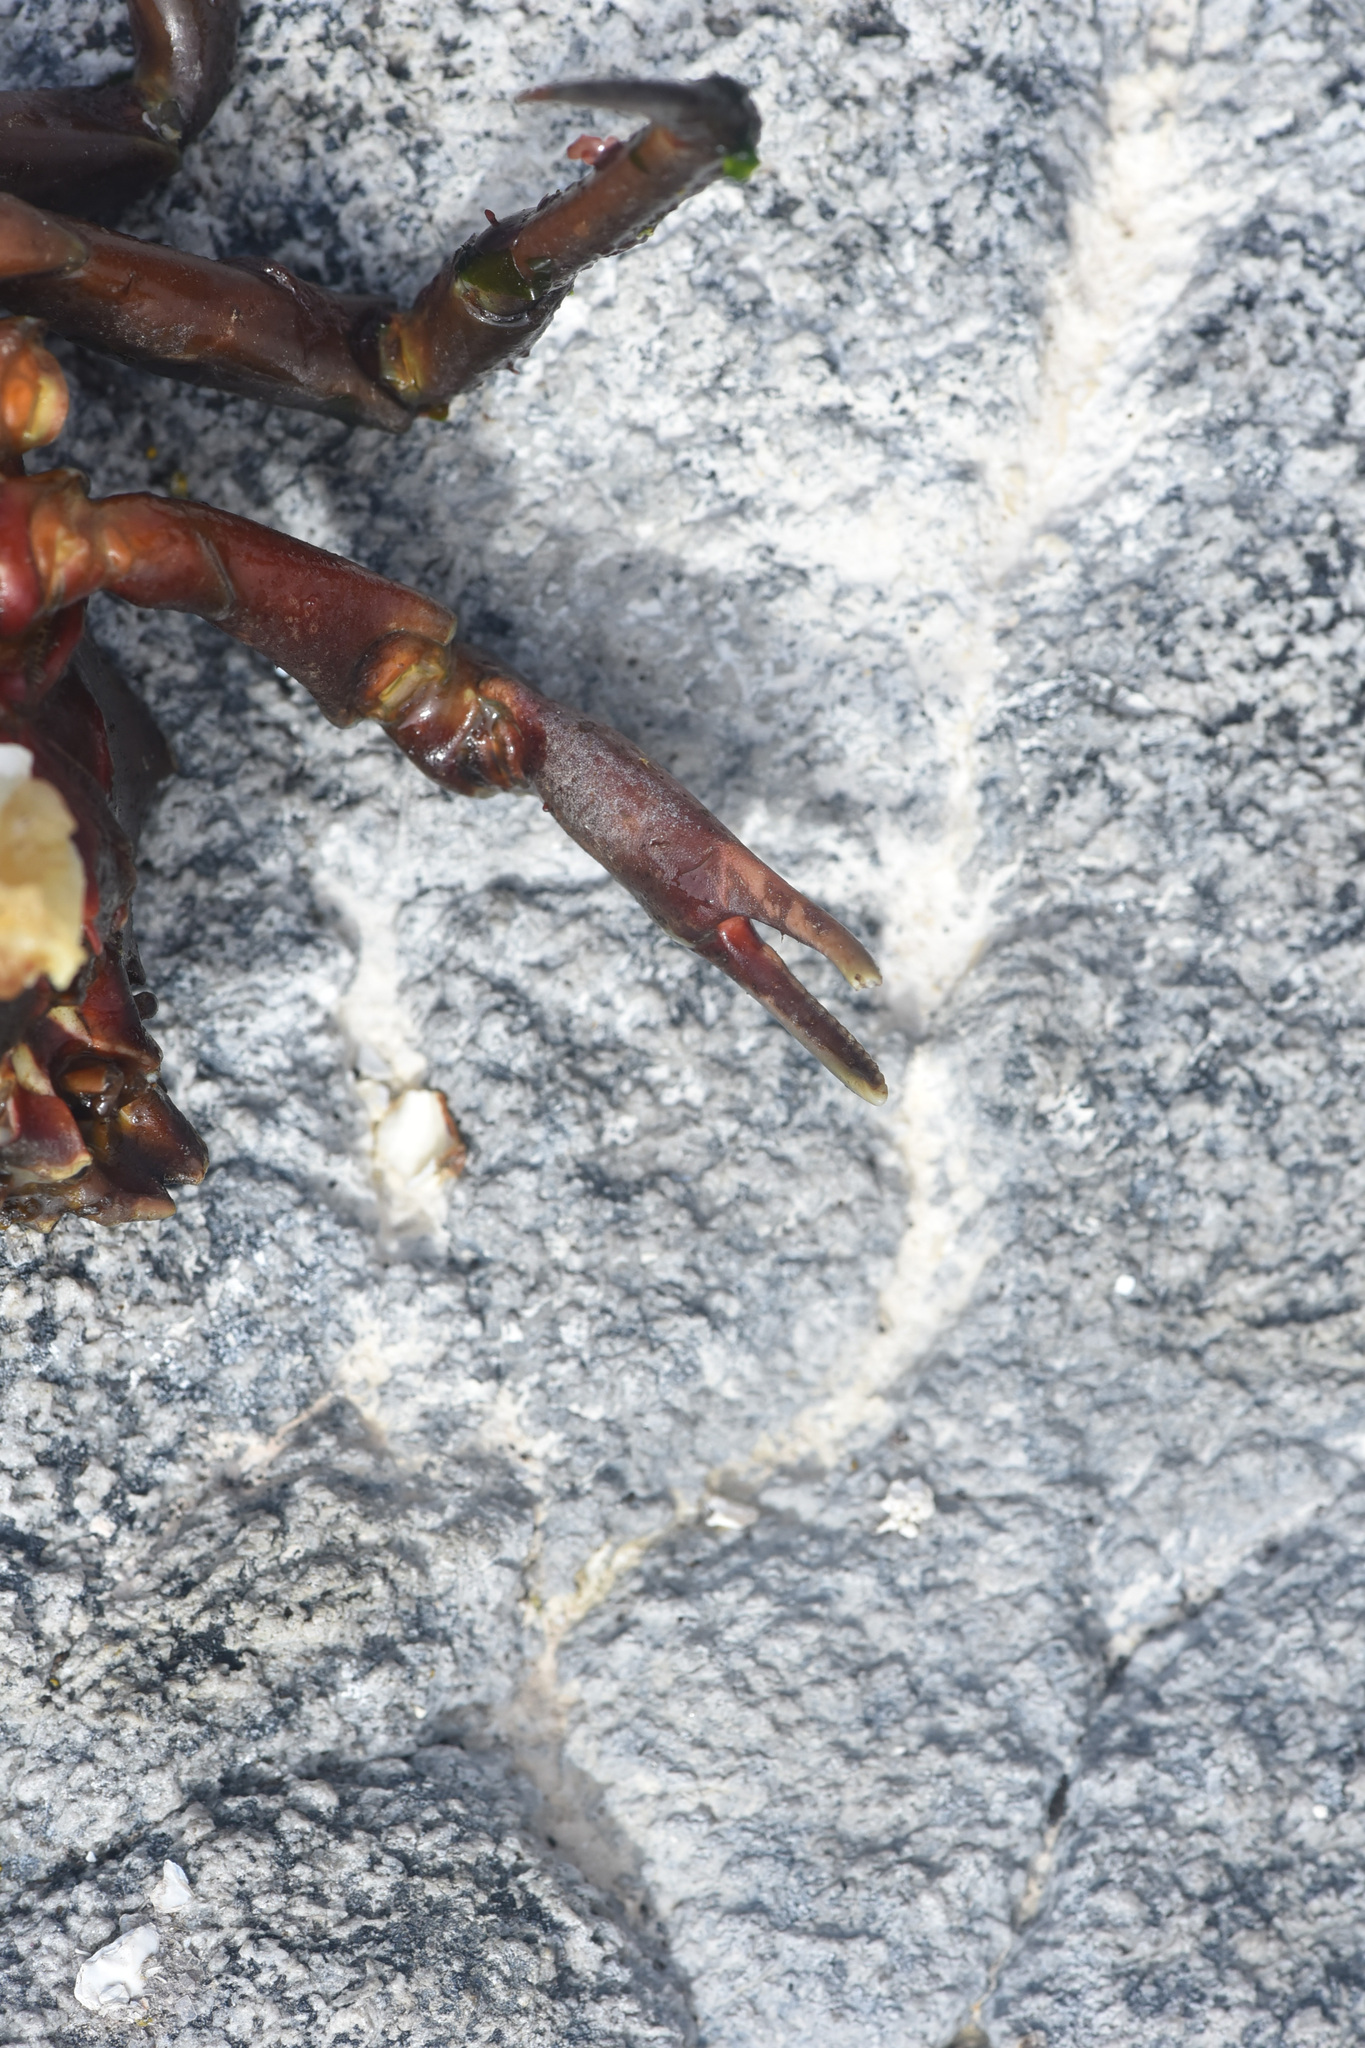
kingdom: Animalia
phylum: Arthropoda
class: Malacostraca
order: Decapoda
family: Epialtidae
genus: Pugettia
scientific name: Pugettia producta
